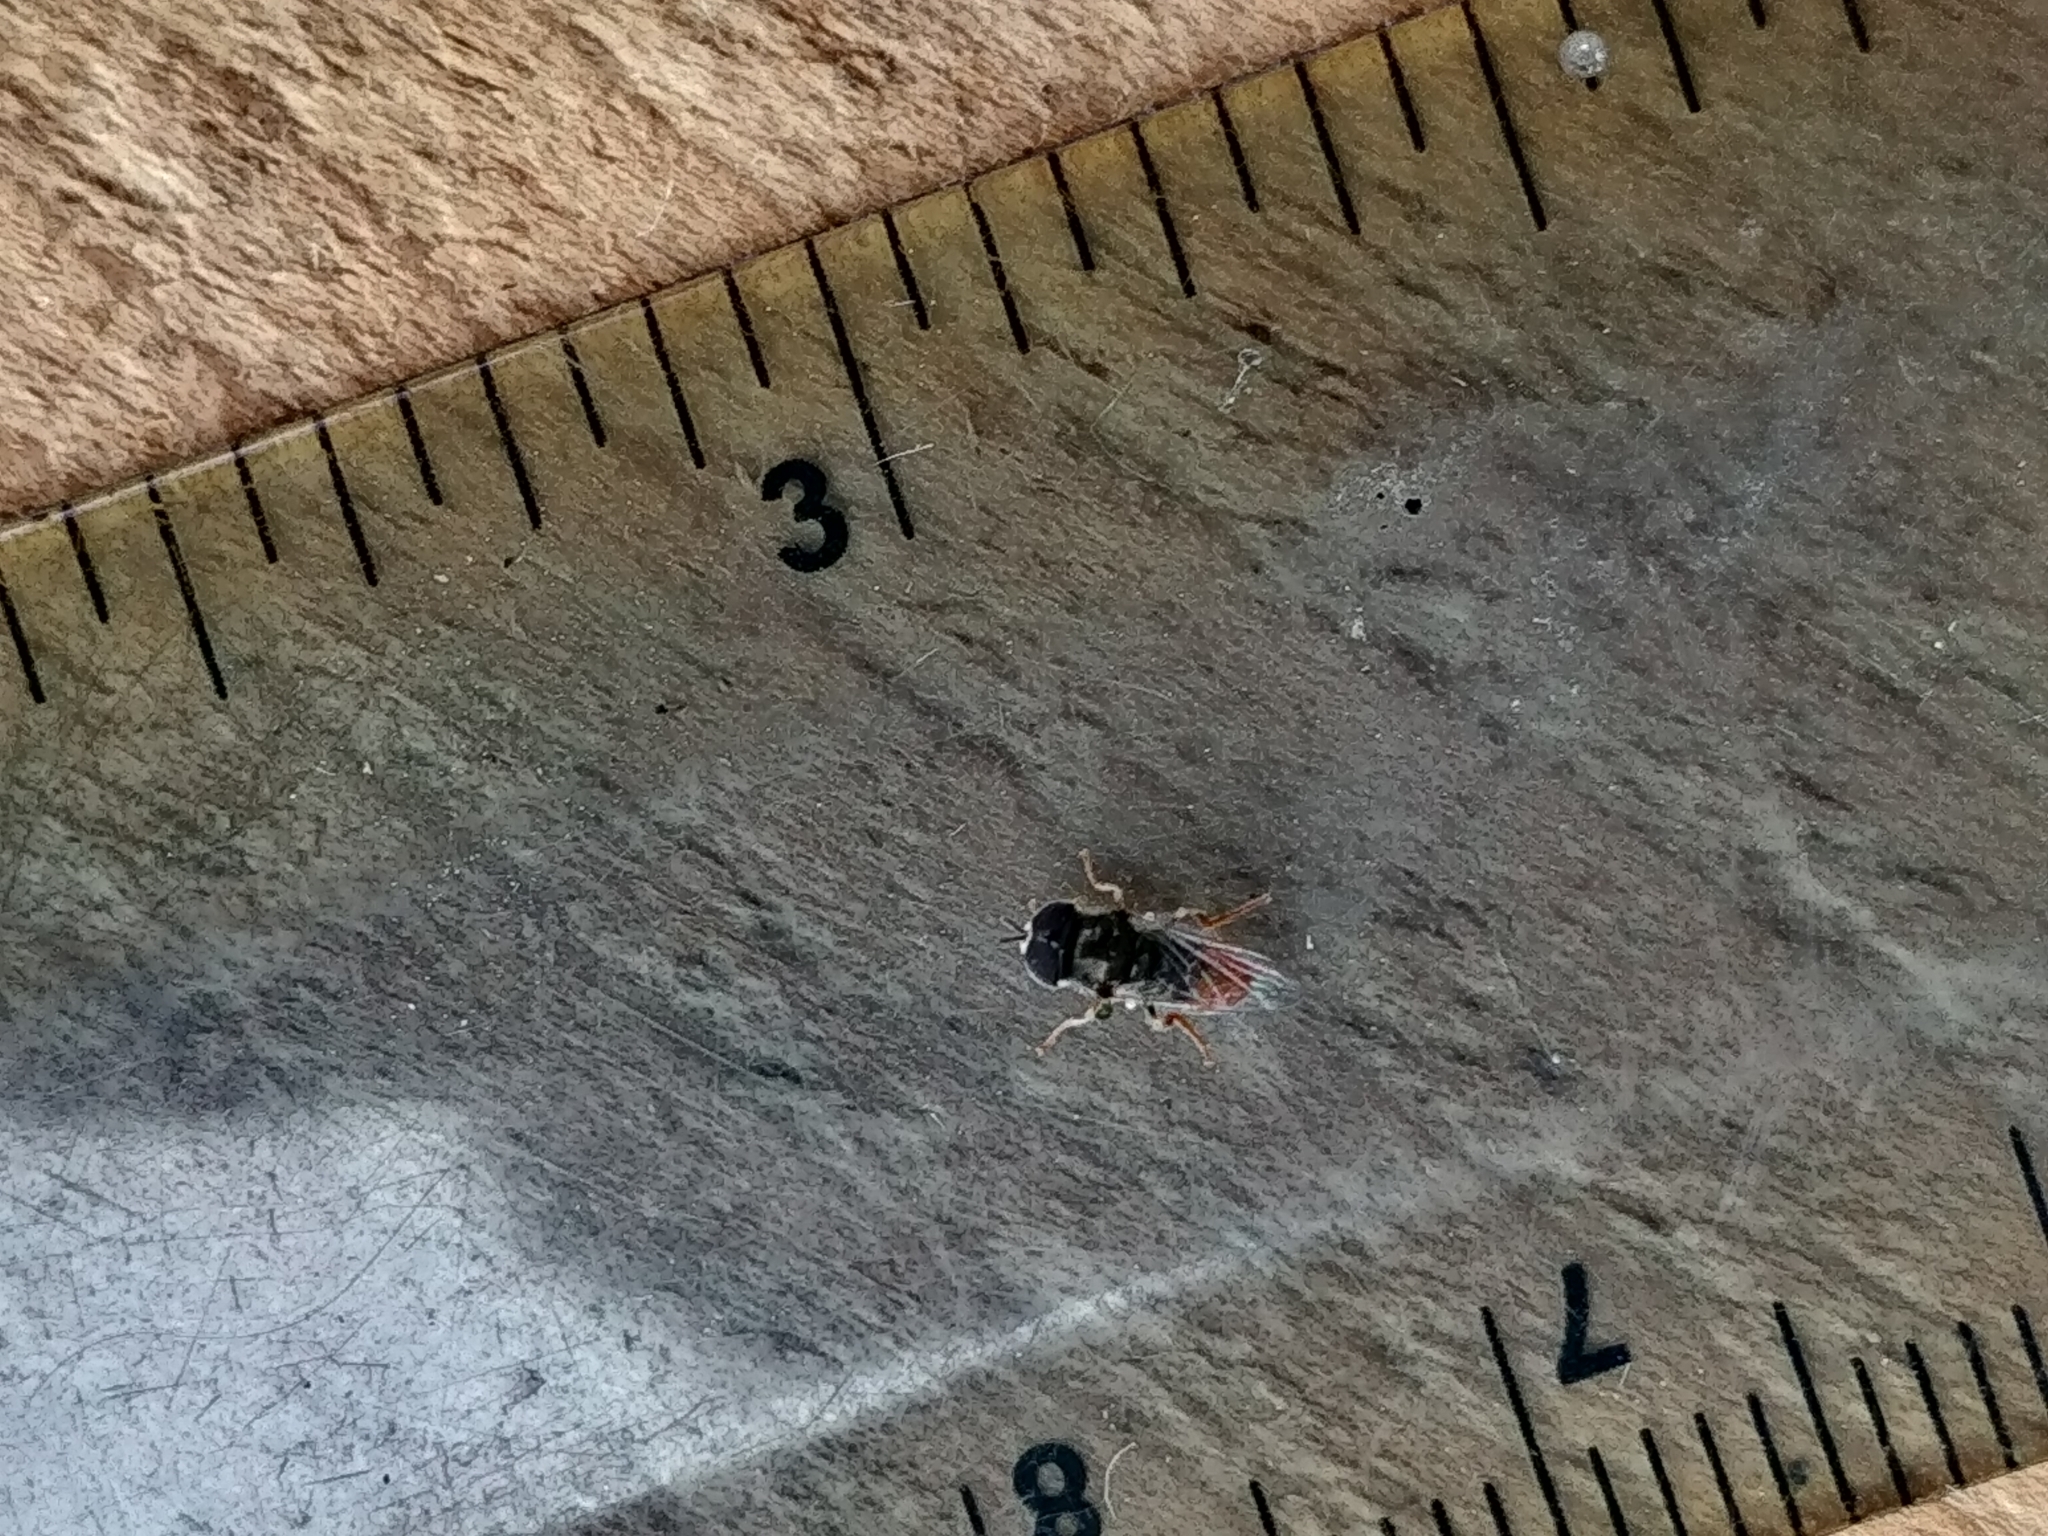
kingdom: Animalia
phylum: Arthropoda
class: Insecta
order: Diptera
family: Syrphidae
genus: Paragus
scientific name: Paragus haemorrhous
